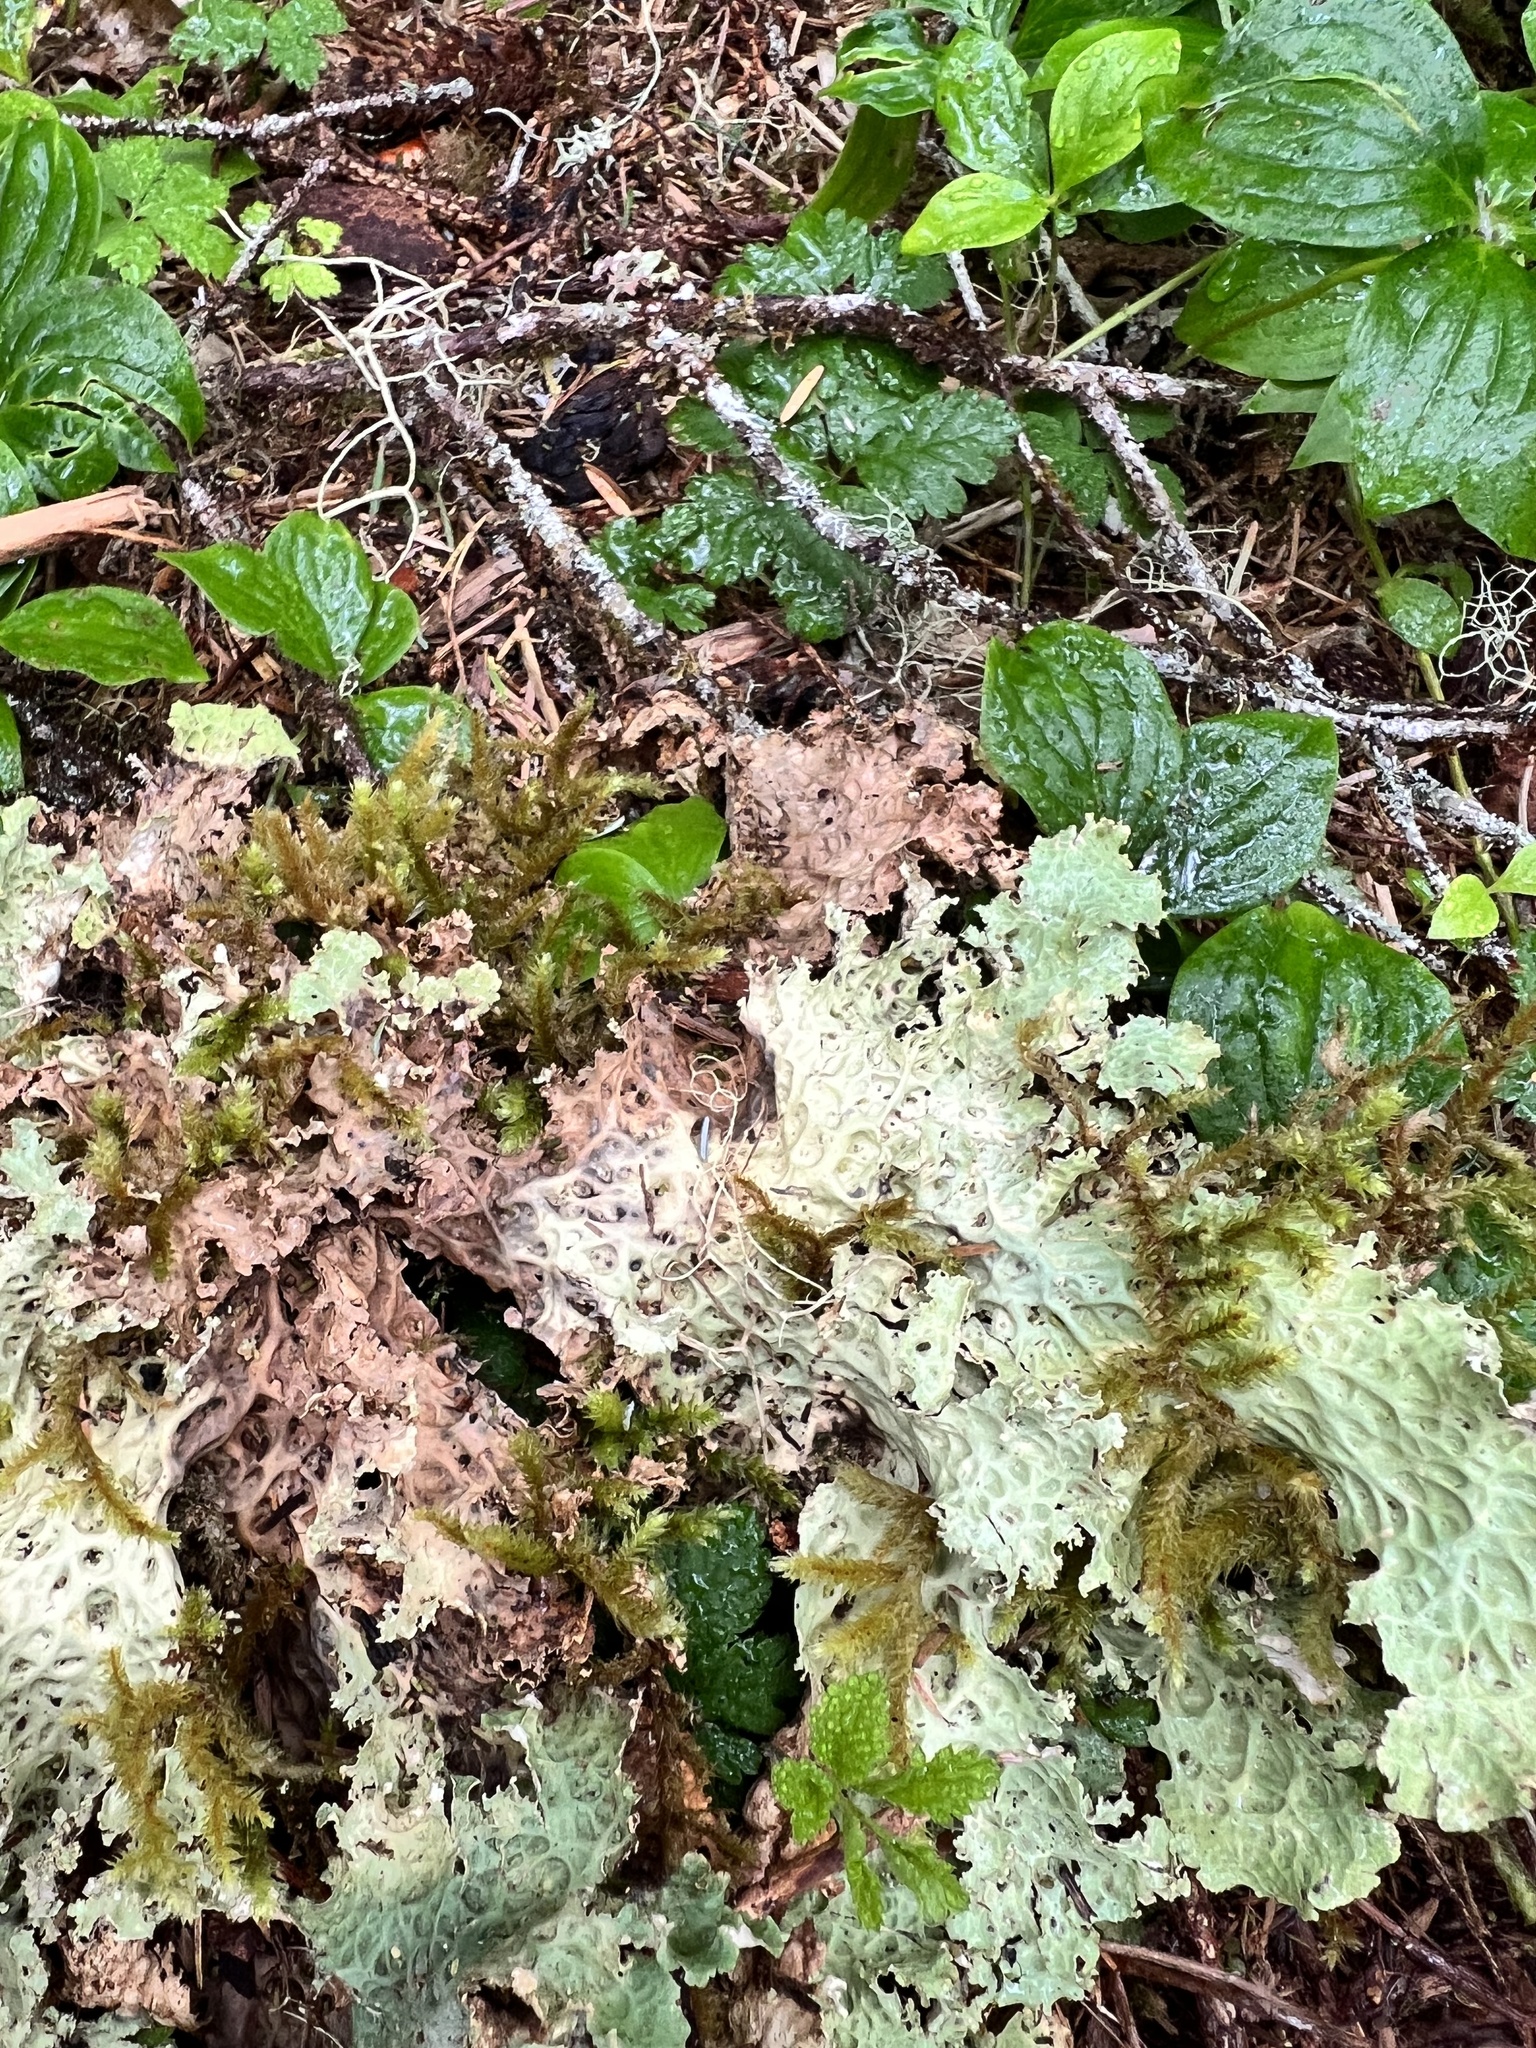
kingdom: Fungi
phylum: Ascomycota
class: Lecanoromycetes
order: Peltigerales
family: Lobariaceae
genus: Lobaria
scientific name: Lobaria oregana
